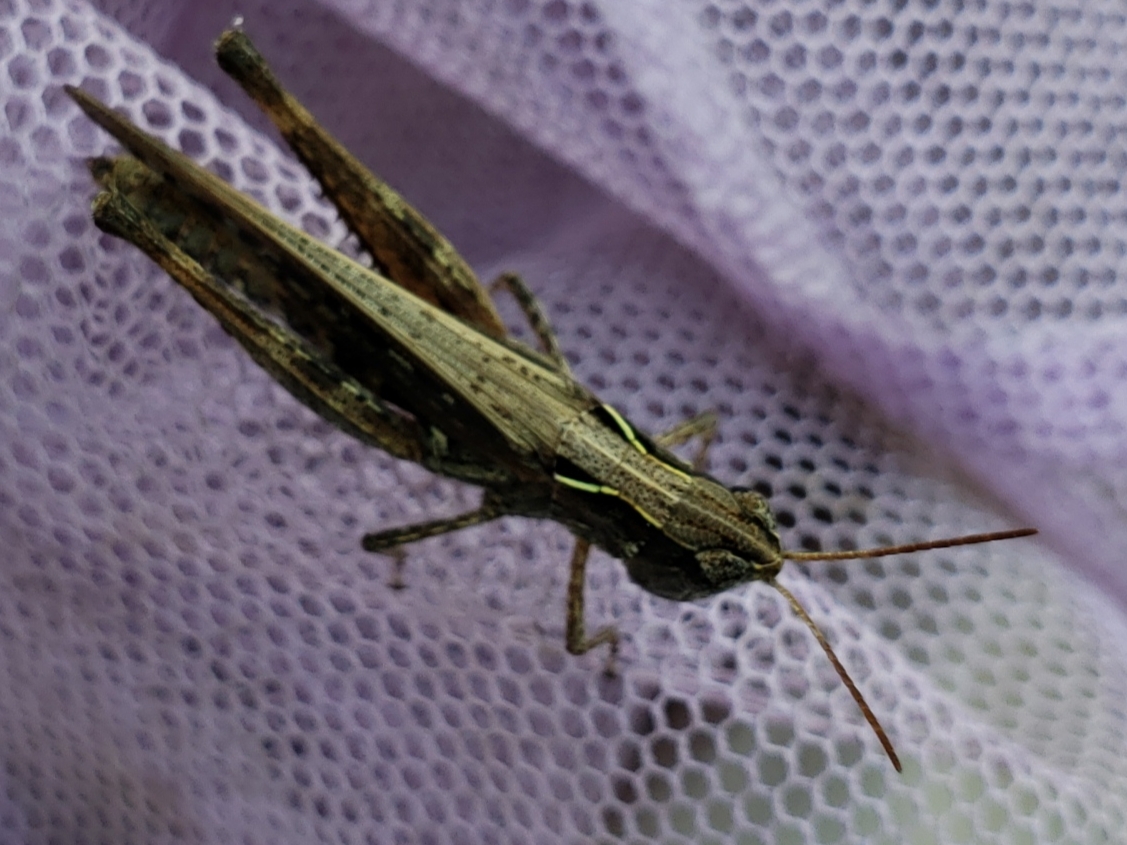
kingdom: Animalia
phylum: Arthropoda
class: Insecta
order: Orthoptera
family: Acrididae
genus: Orphulella
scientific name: Orphulella pelidna
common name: Spotted-wing grasshopper
